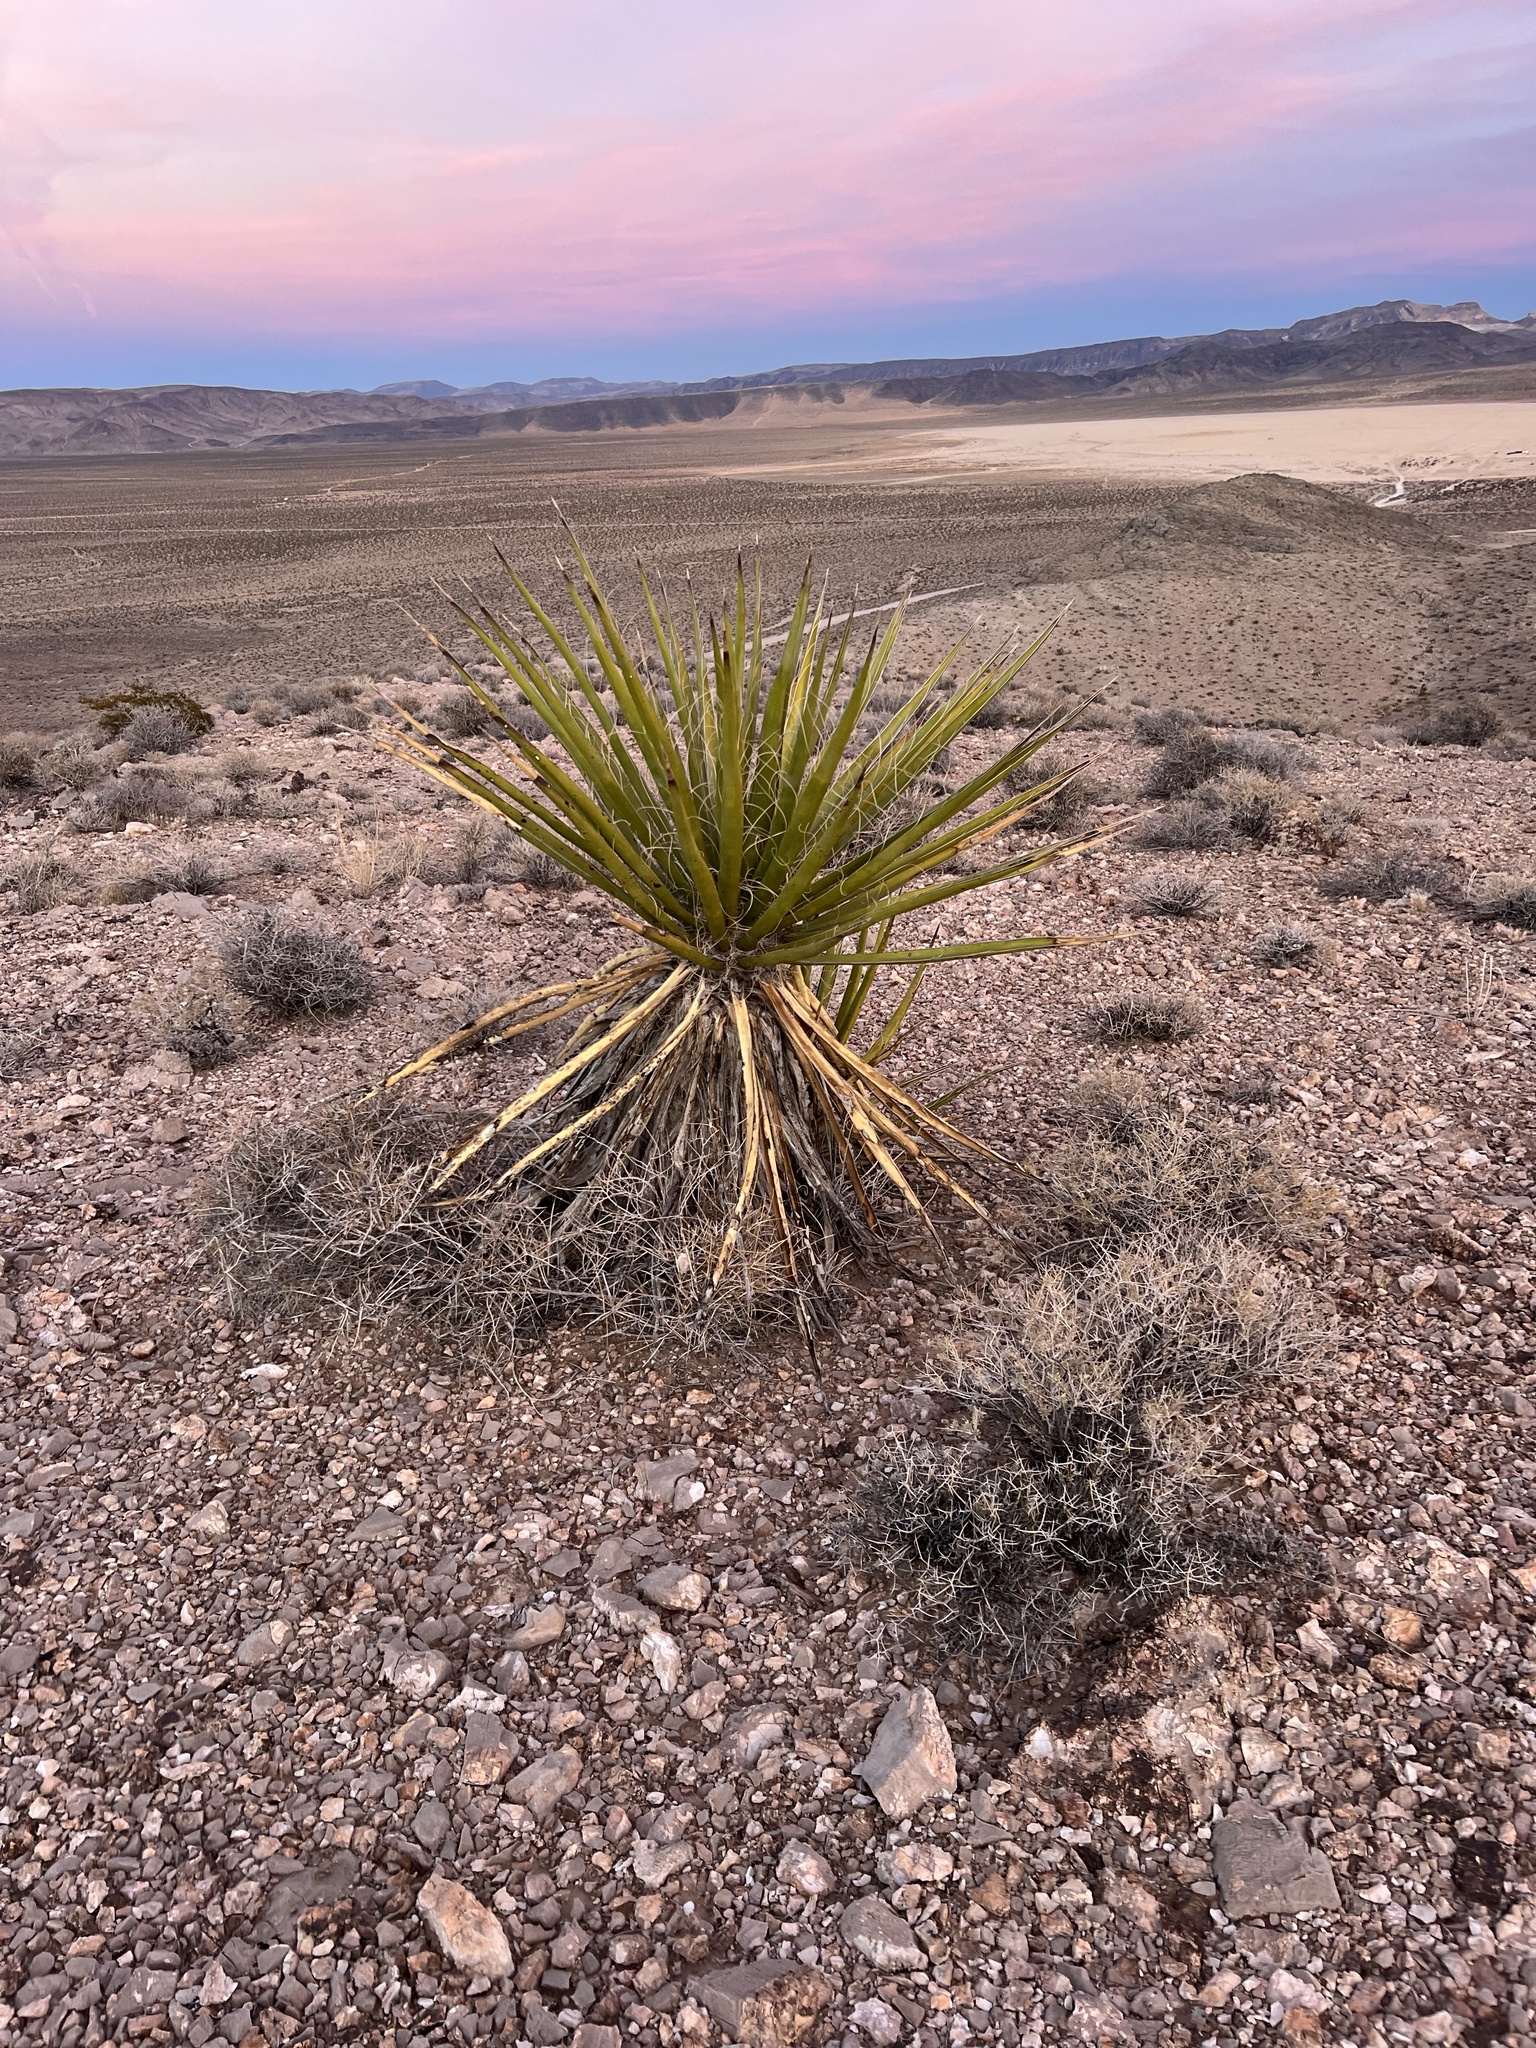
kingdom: Plantae
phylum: Tracheophyta
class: Liliopsida
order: Asparagales
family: Asparagaceae
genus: Yucca
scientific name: Yucca schidigera
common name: Mojave yucca
